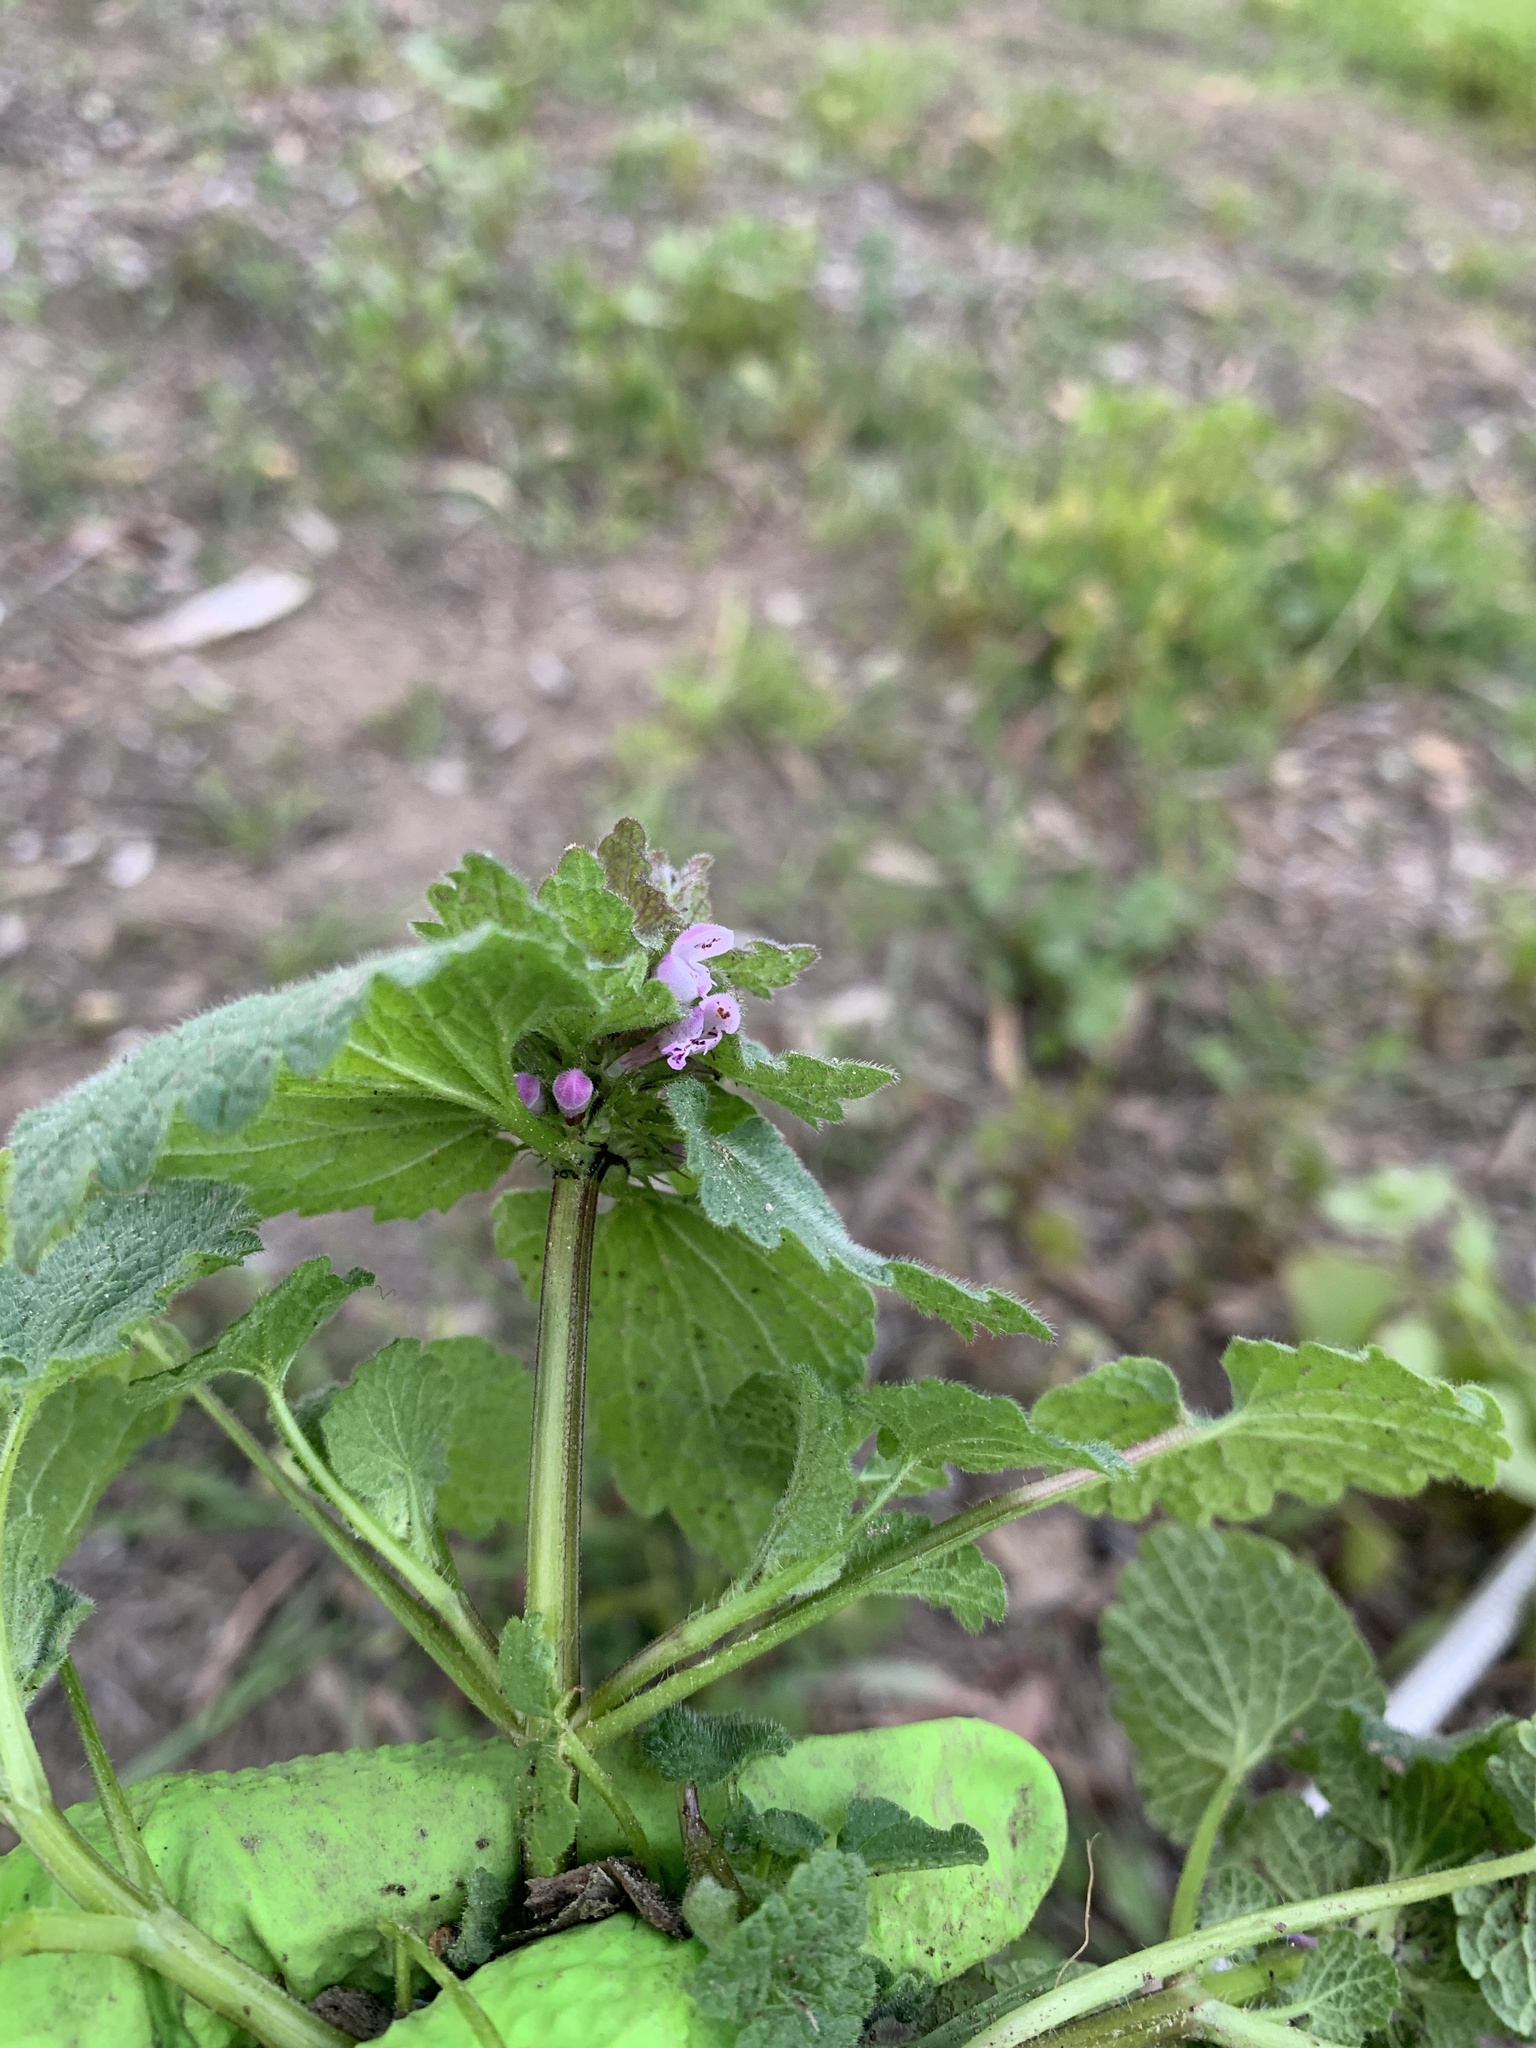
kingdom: Plantae
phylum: Tracheophyta
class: Magnoliopsida
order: Lamiales
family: Lamiaceae
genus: Lamium
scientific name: Lamium purpureum
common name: Red dead-nettle
